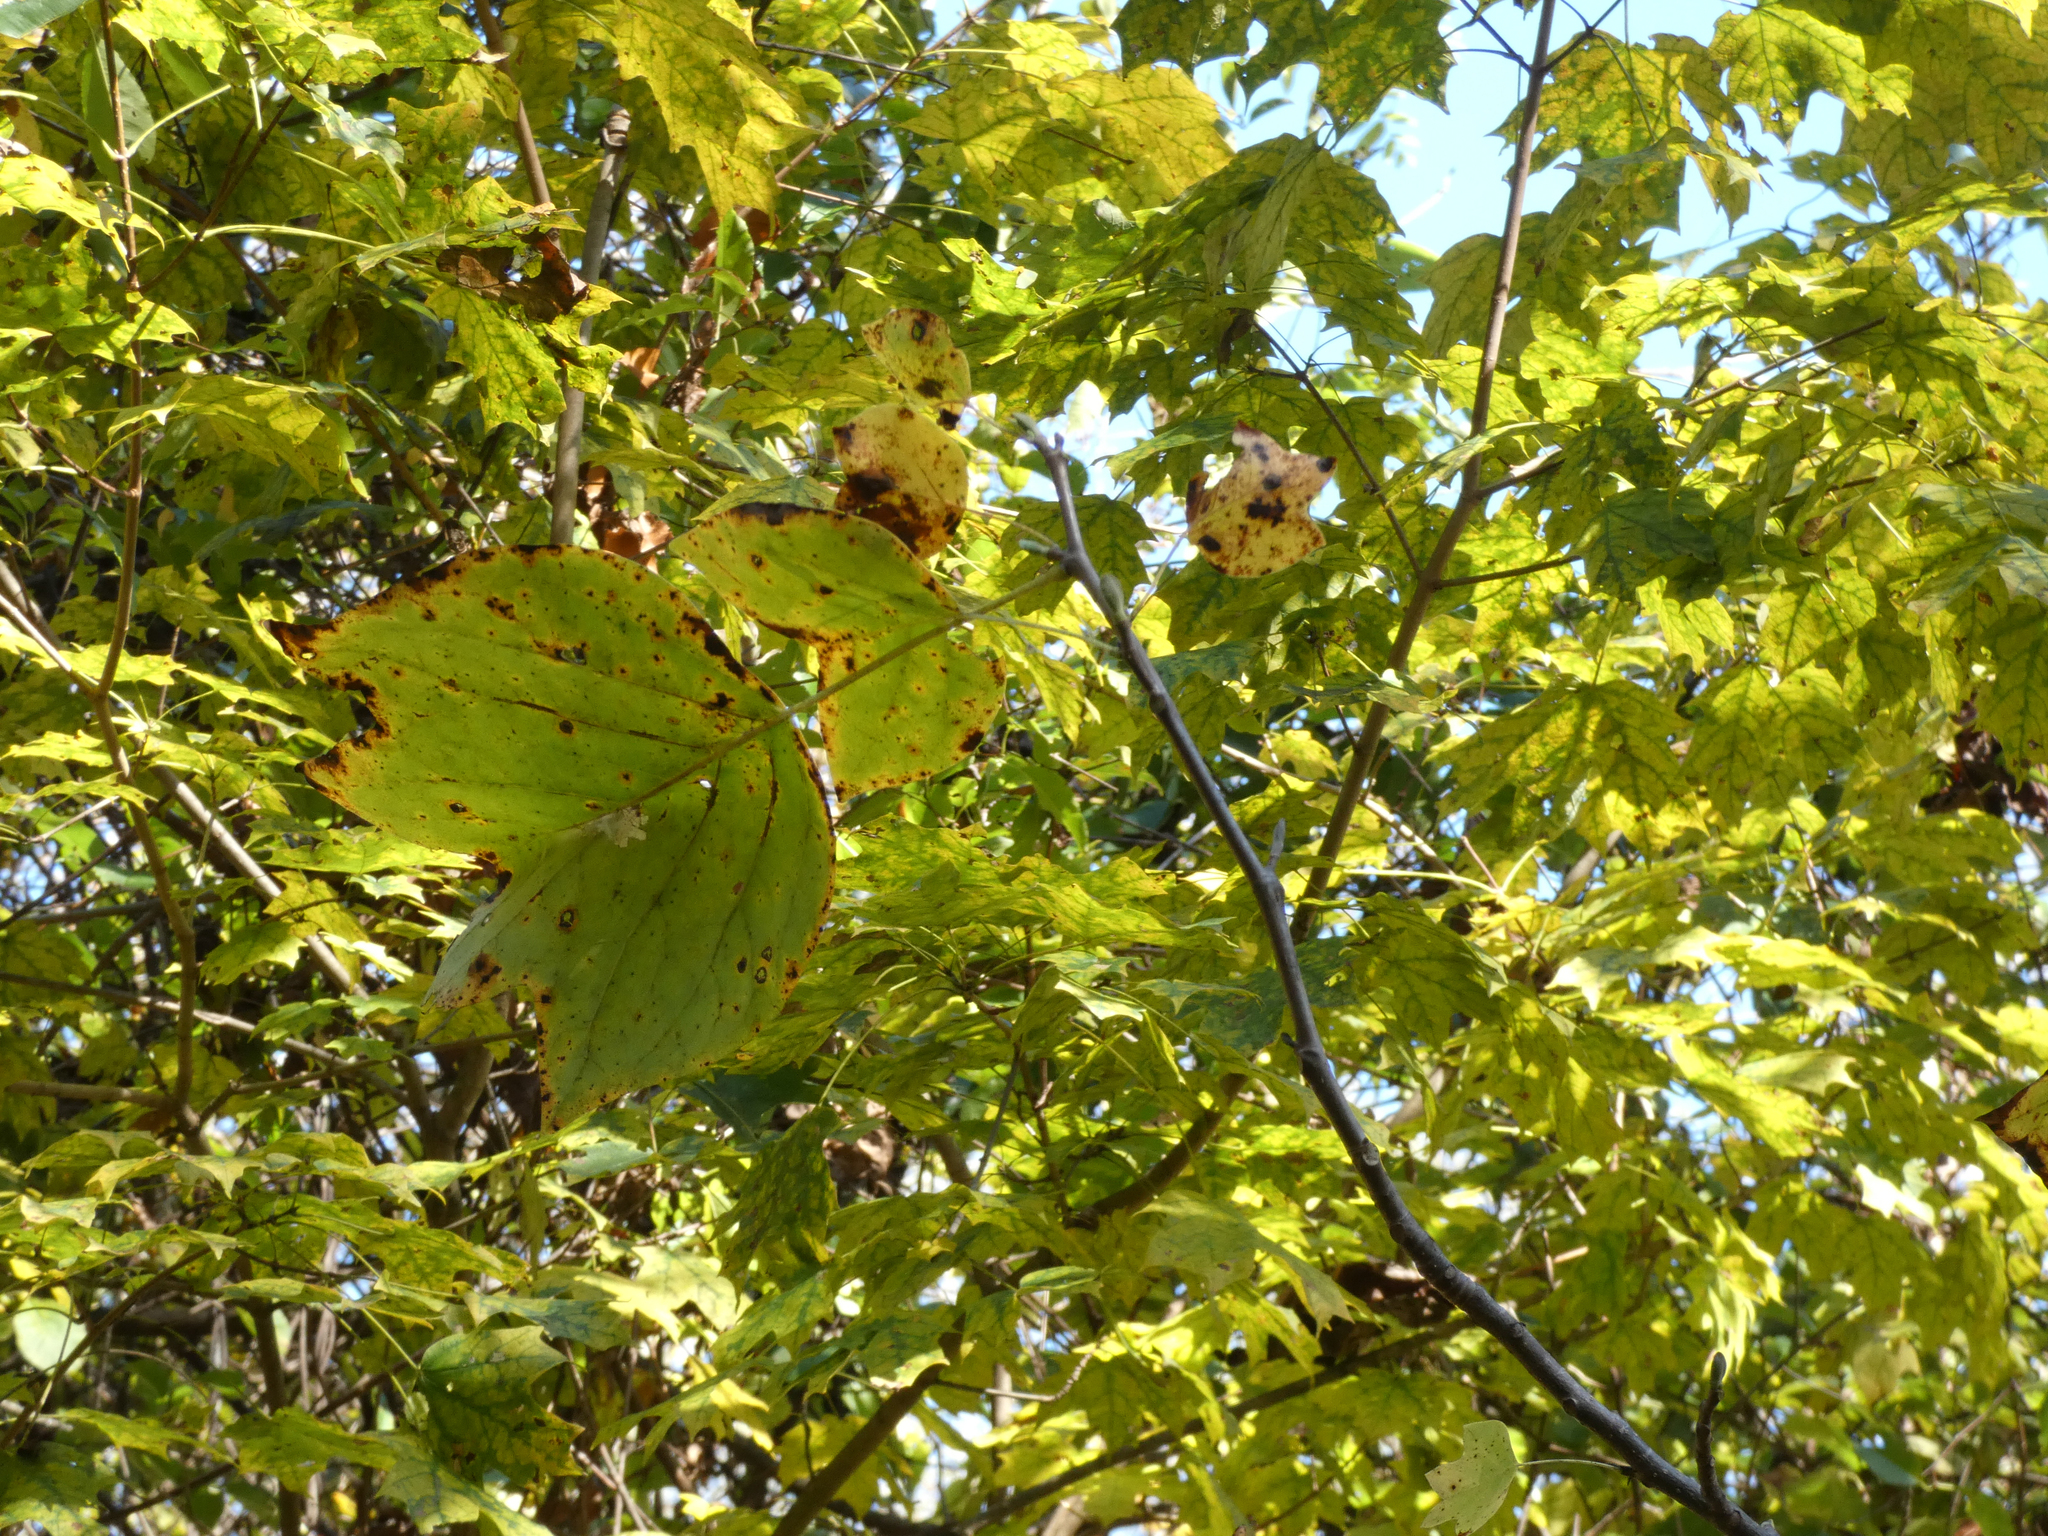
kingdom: Plantae
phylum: Tracheophyta
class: Magnoliopsida
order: Magnoliales
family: Magnoliaceae
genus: Liriodendron
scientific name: Liriodendron tulipifera
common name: Tulip tree
